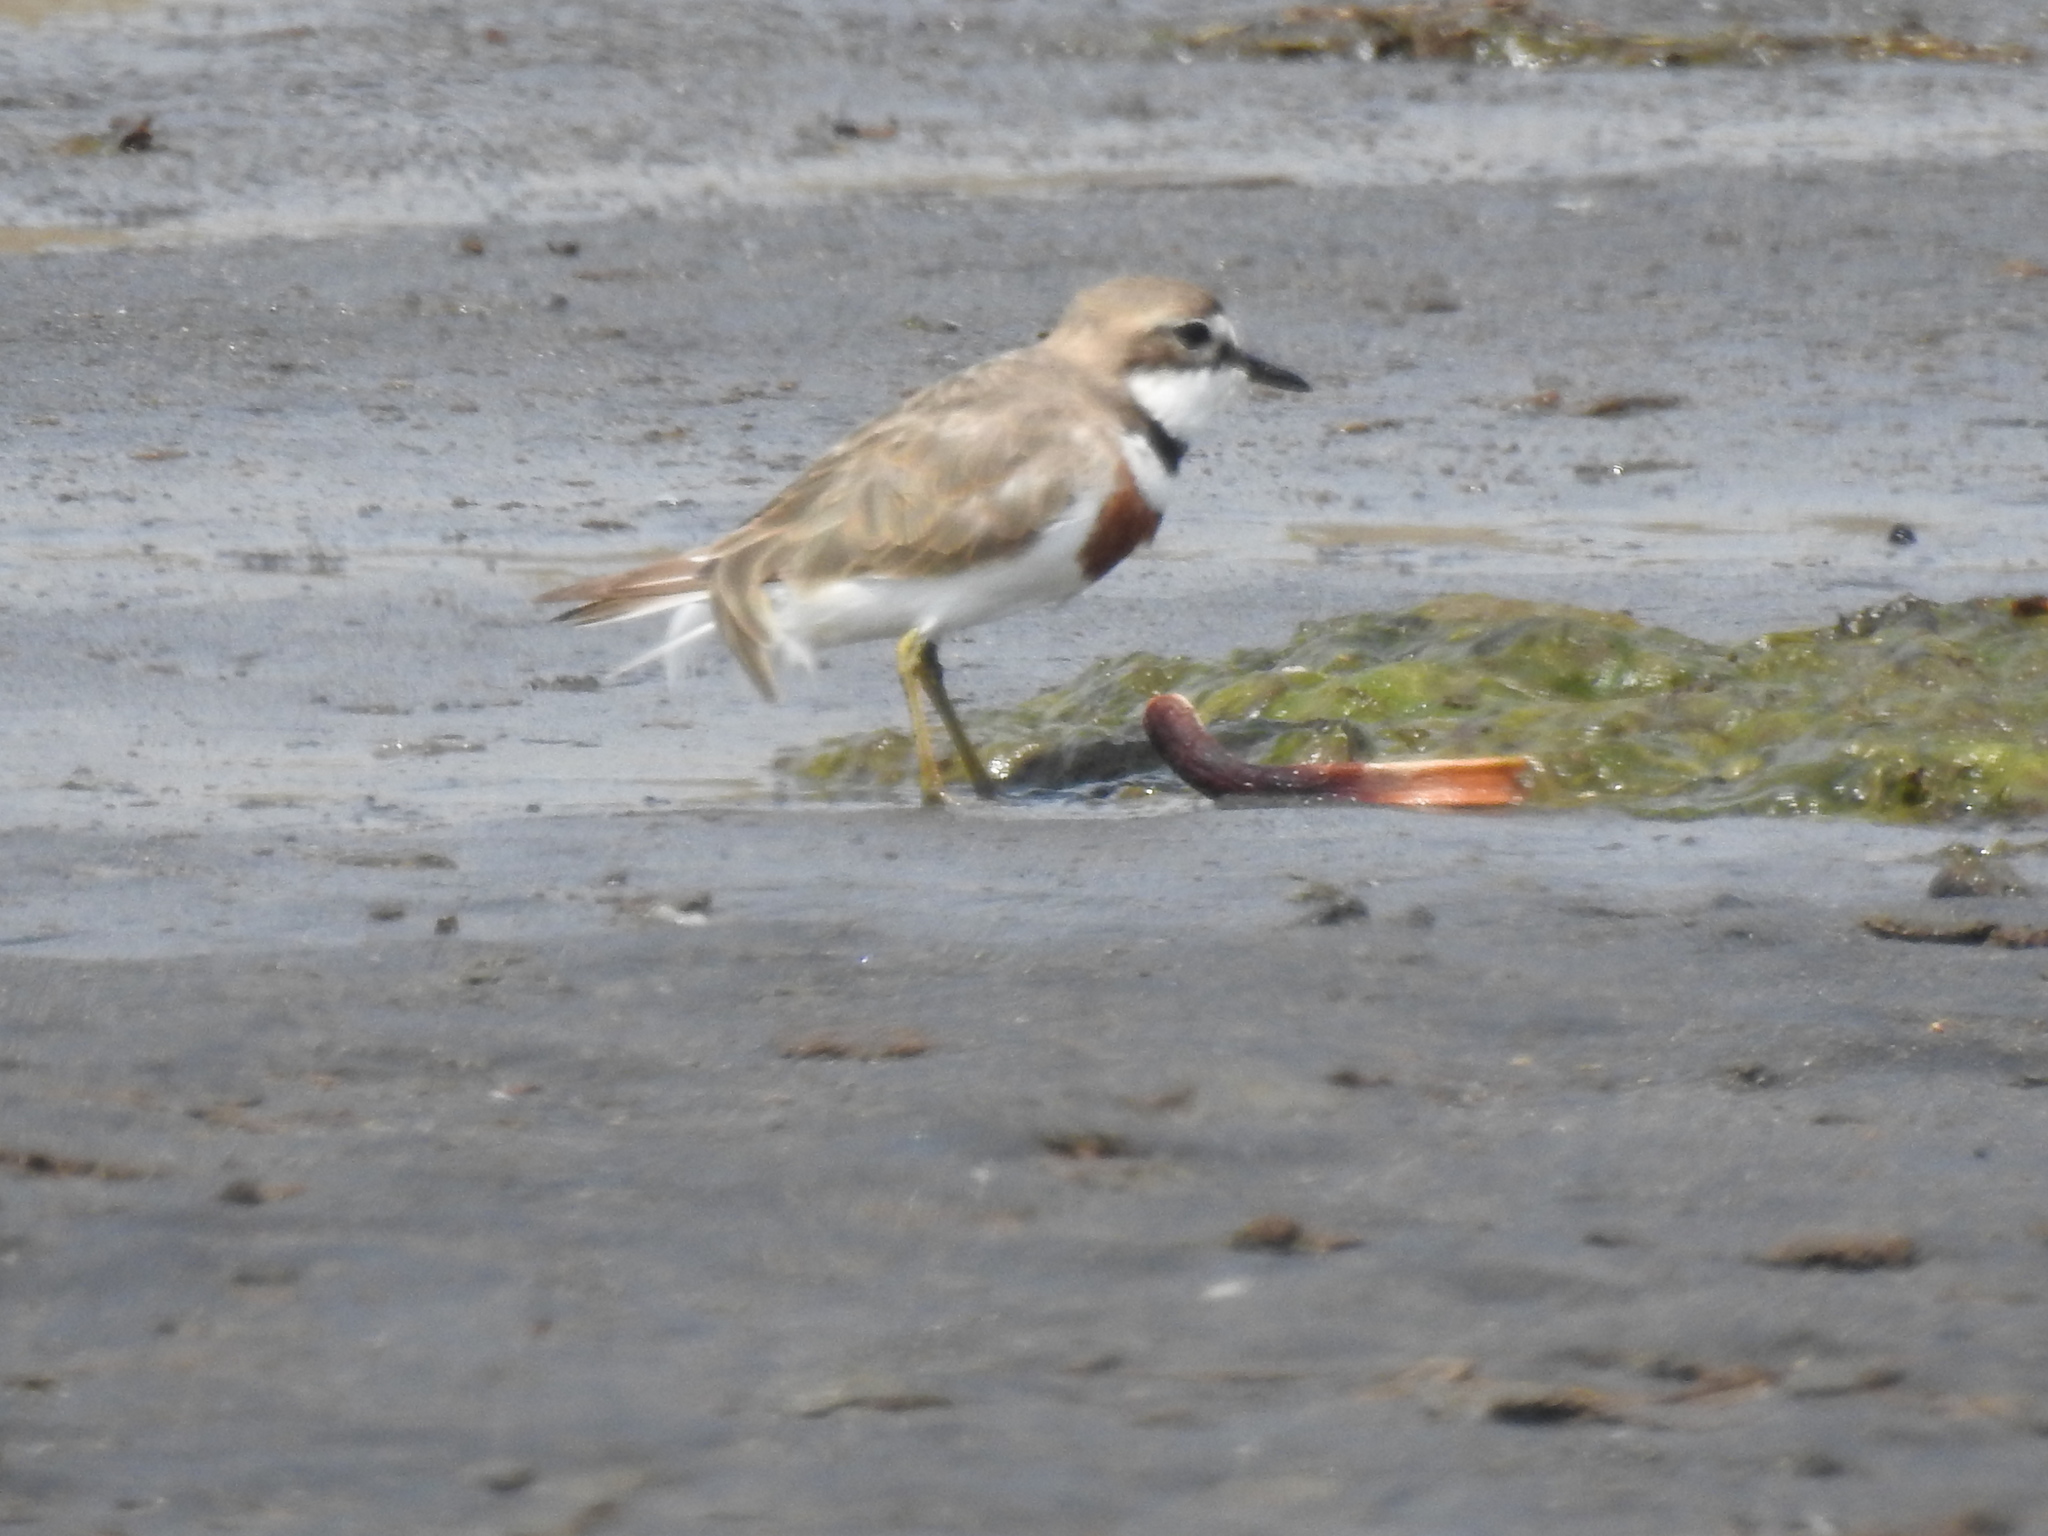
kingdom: Animalia
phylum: Chordata
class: Aves
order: Charadriiformes
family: Charadriidae
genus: Anarhynchus
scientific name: Anarhynchus
